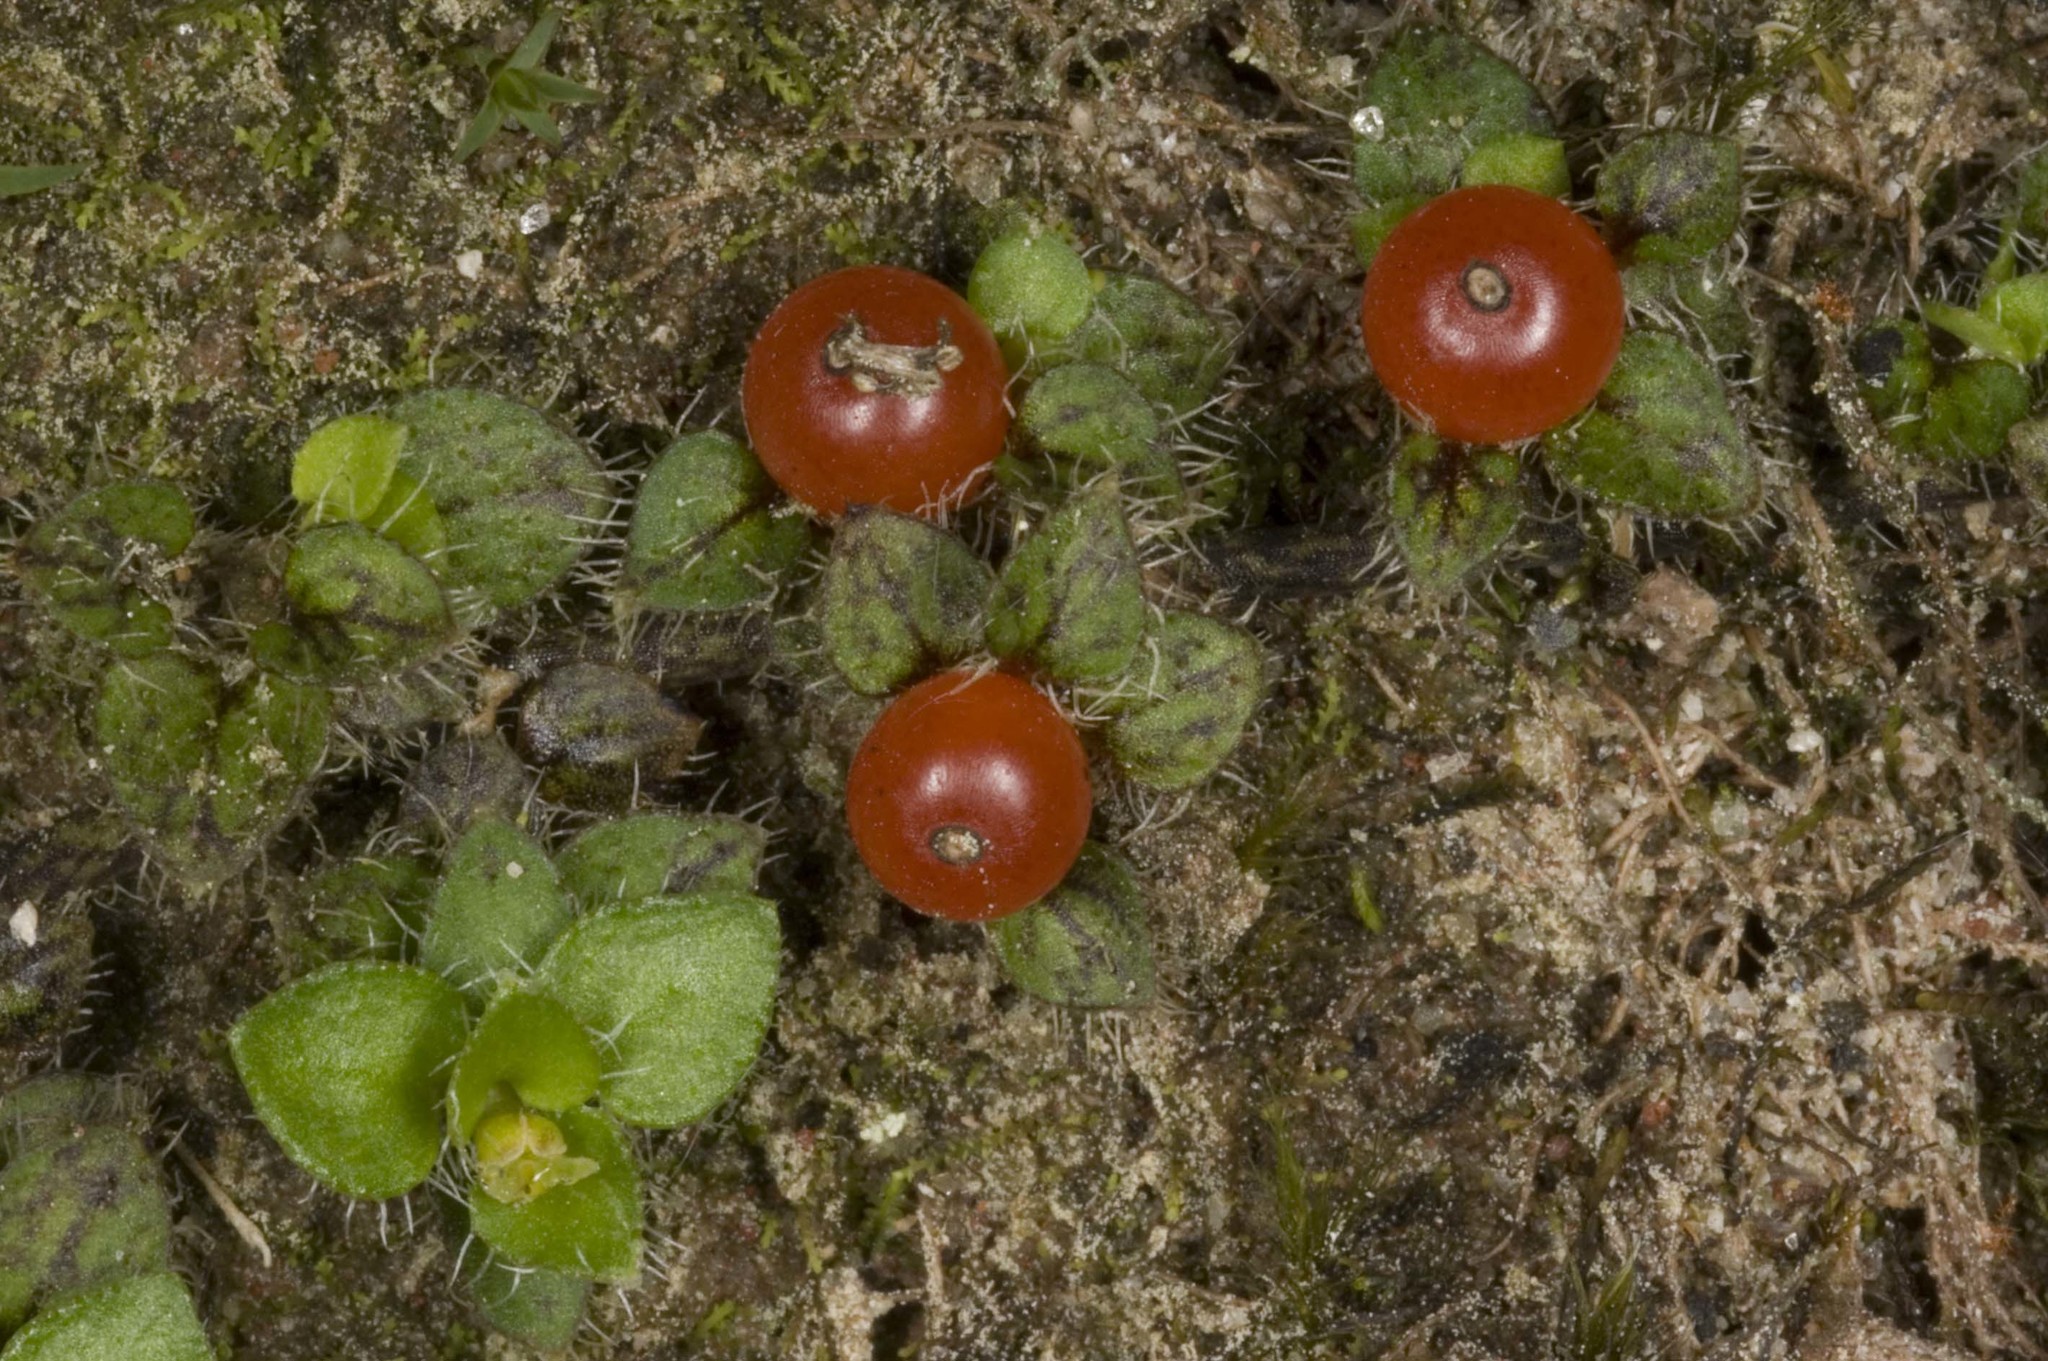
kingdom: Plantae
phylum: Tracheophyta
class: Magnoliopsida
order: Gentianales
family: Rubiaceae
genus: Nertera
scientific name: Nertera ciliata
